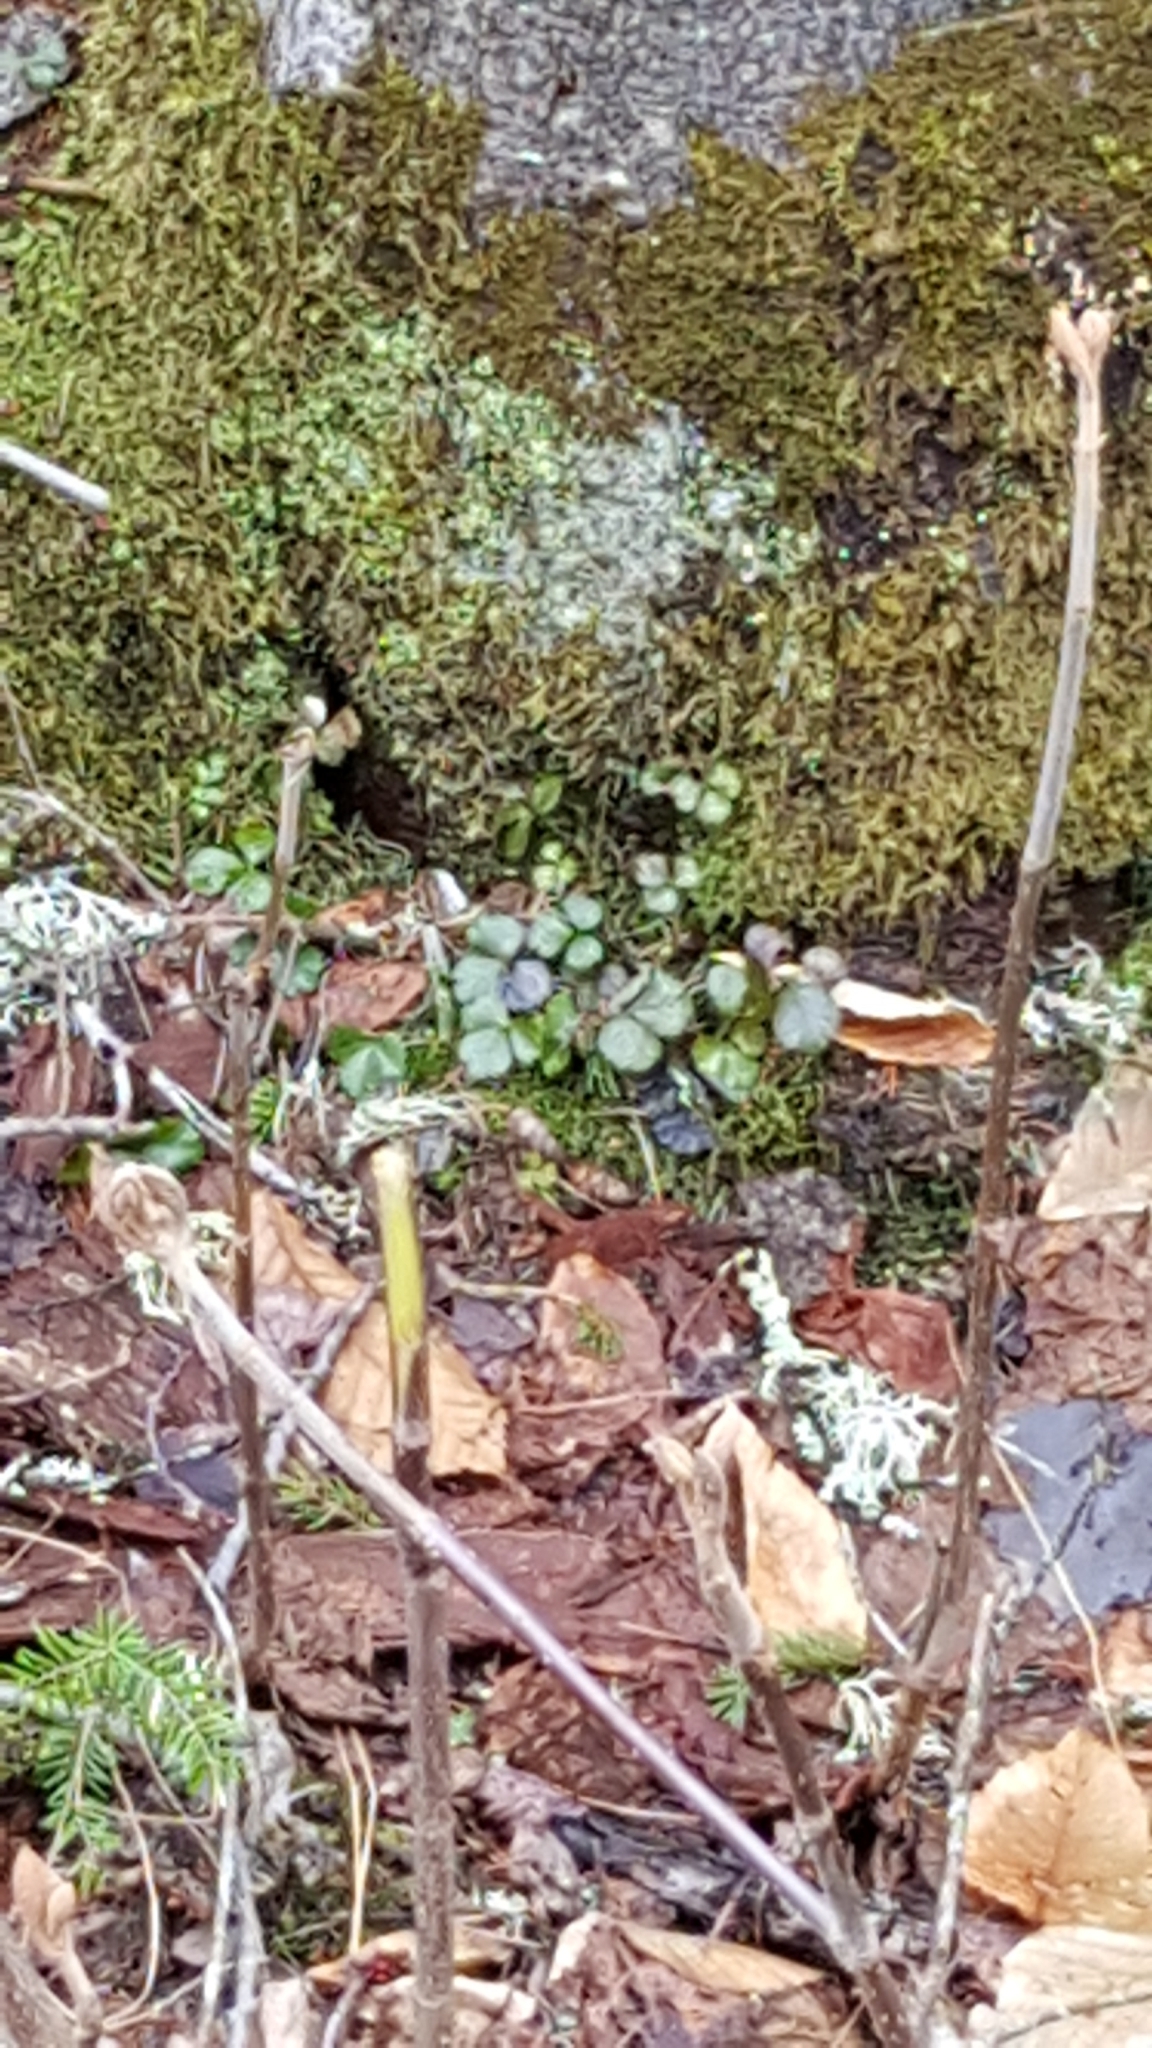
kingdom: Plantae
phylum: Tracheophyta
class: Magnoliopsida
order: Ranunculales
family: Ranunculaceae
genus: Coptis
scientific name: Coptis trifolia
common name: Canker-root
